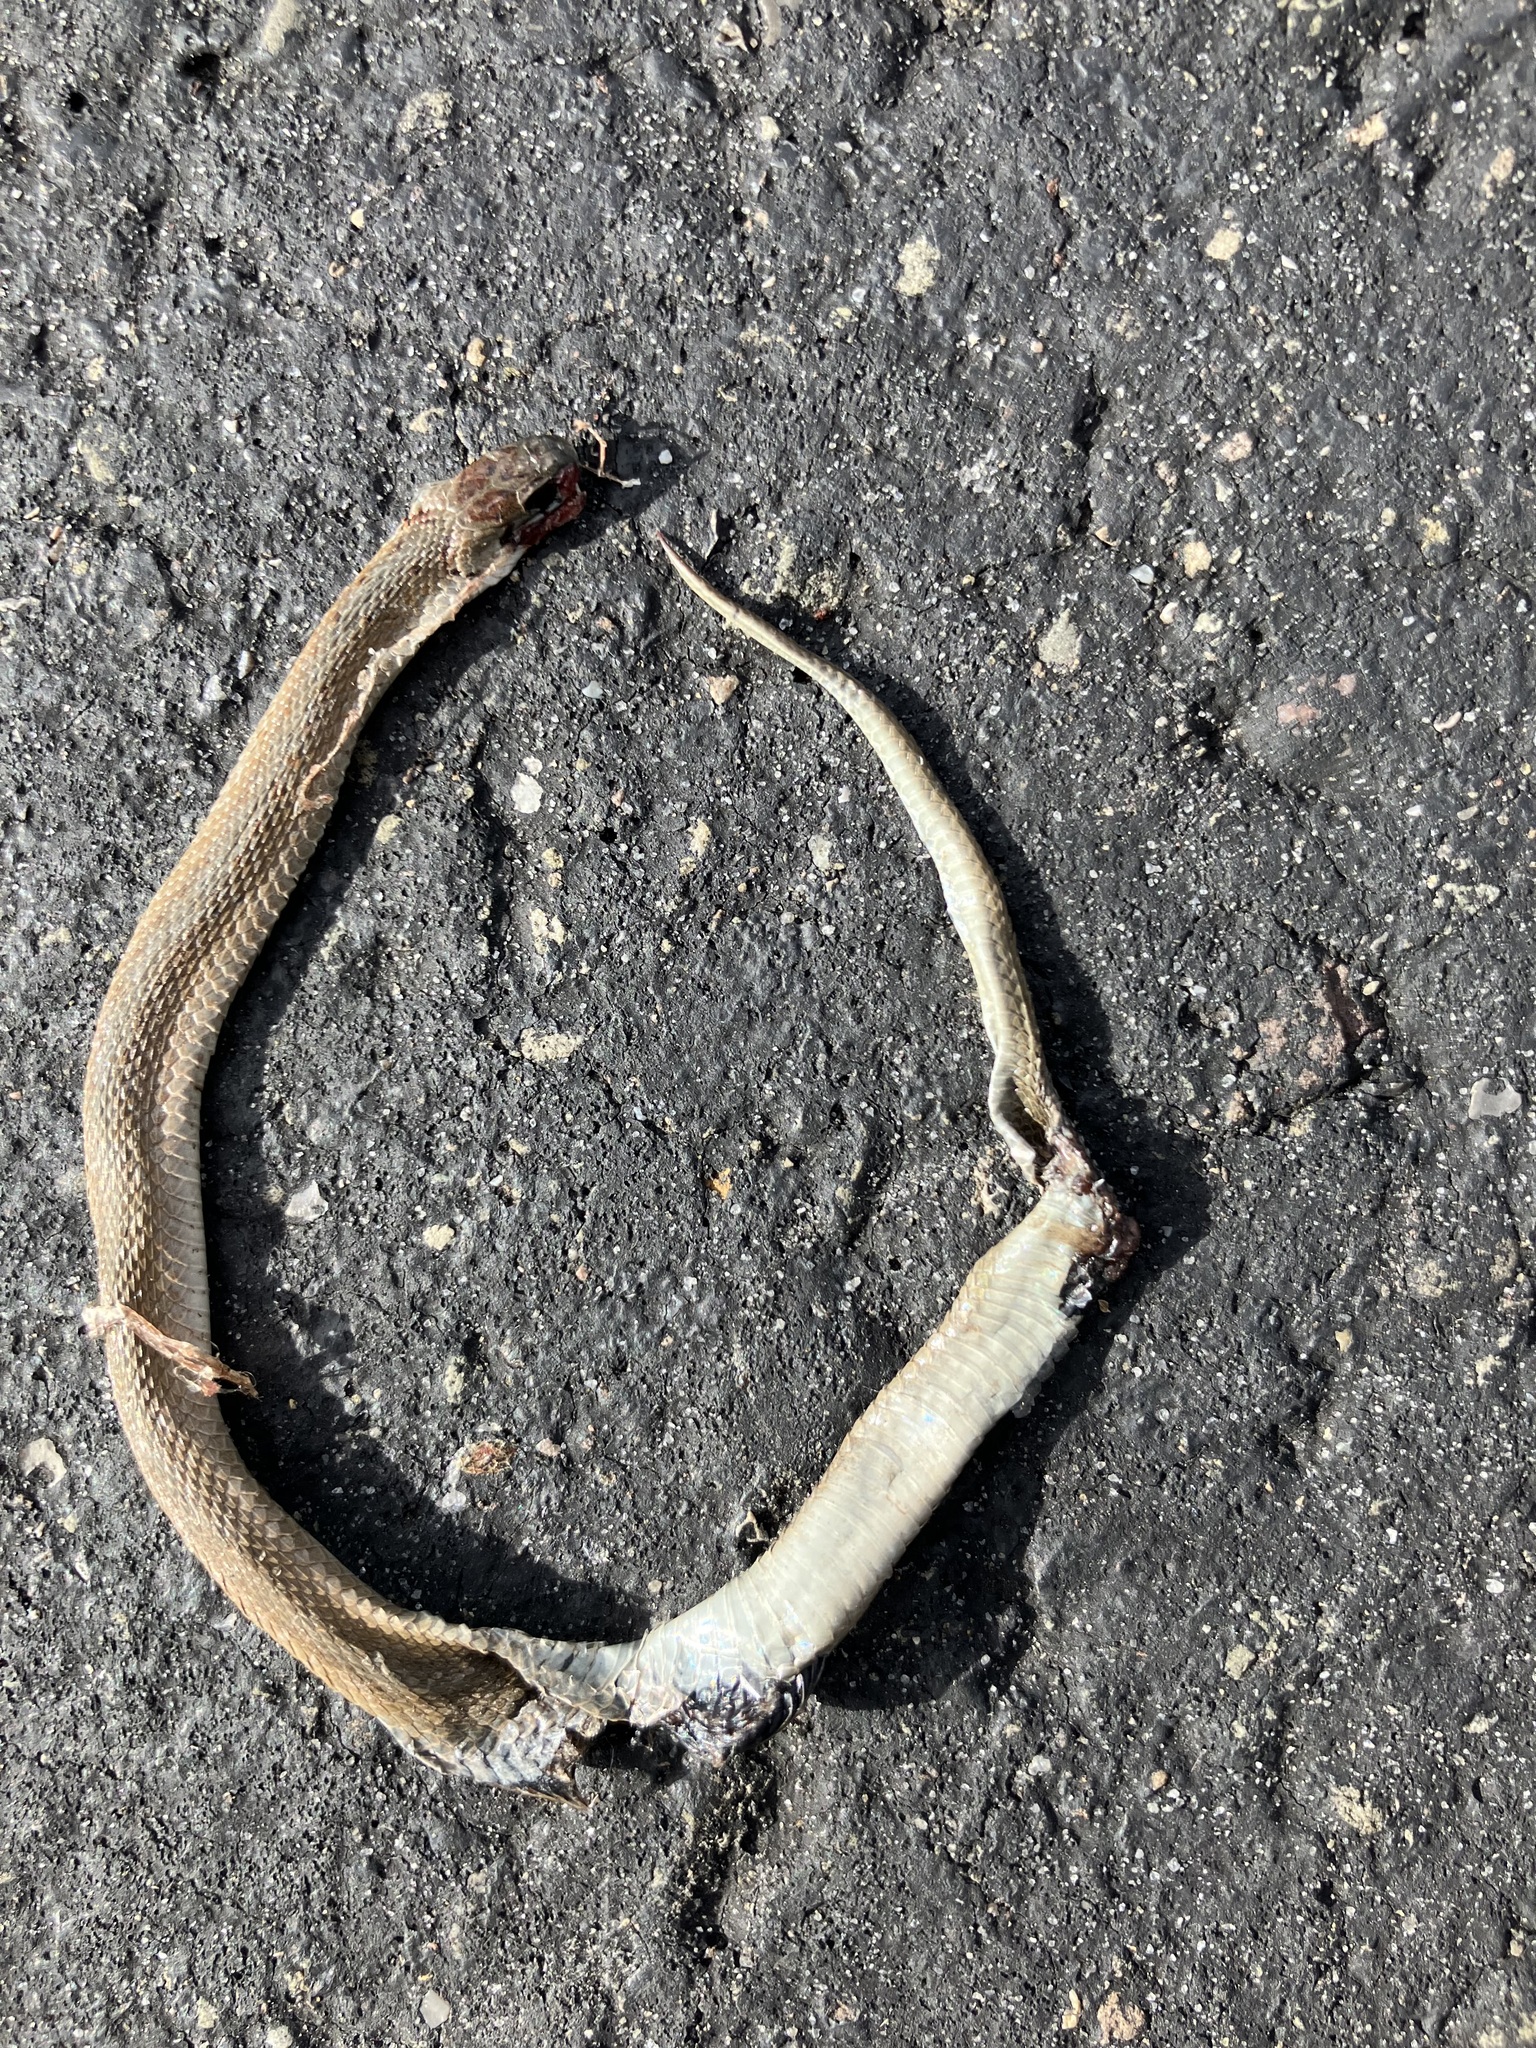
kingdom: Animalia
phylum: Chordata
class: Squamata
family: Colubridae
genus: Storeria
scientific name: Storeria dekayi
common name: (dekay’s) brown snake
